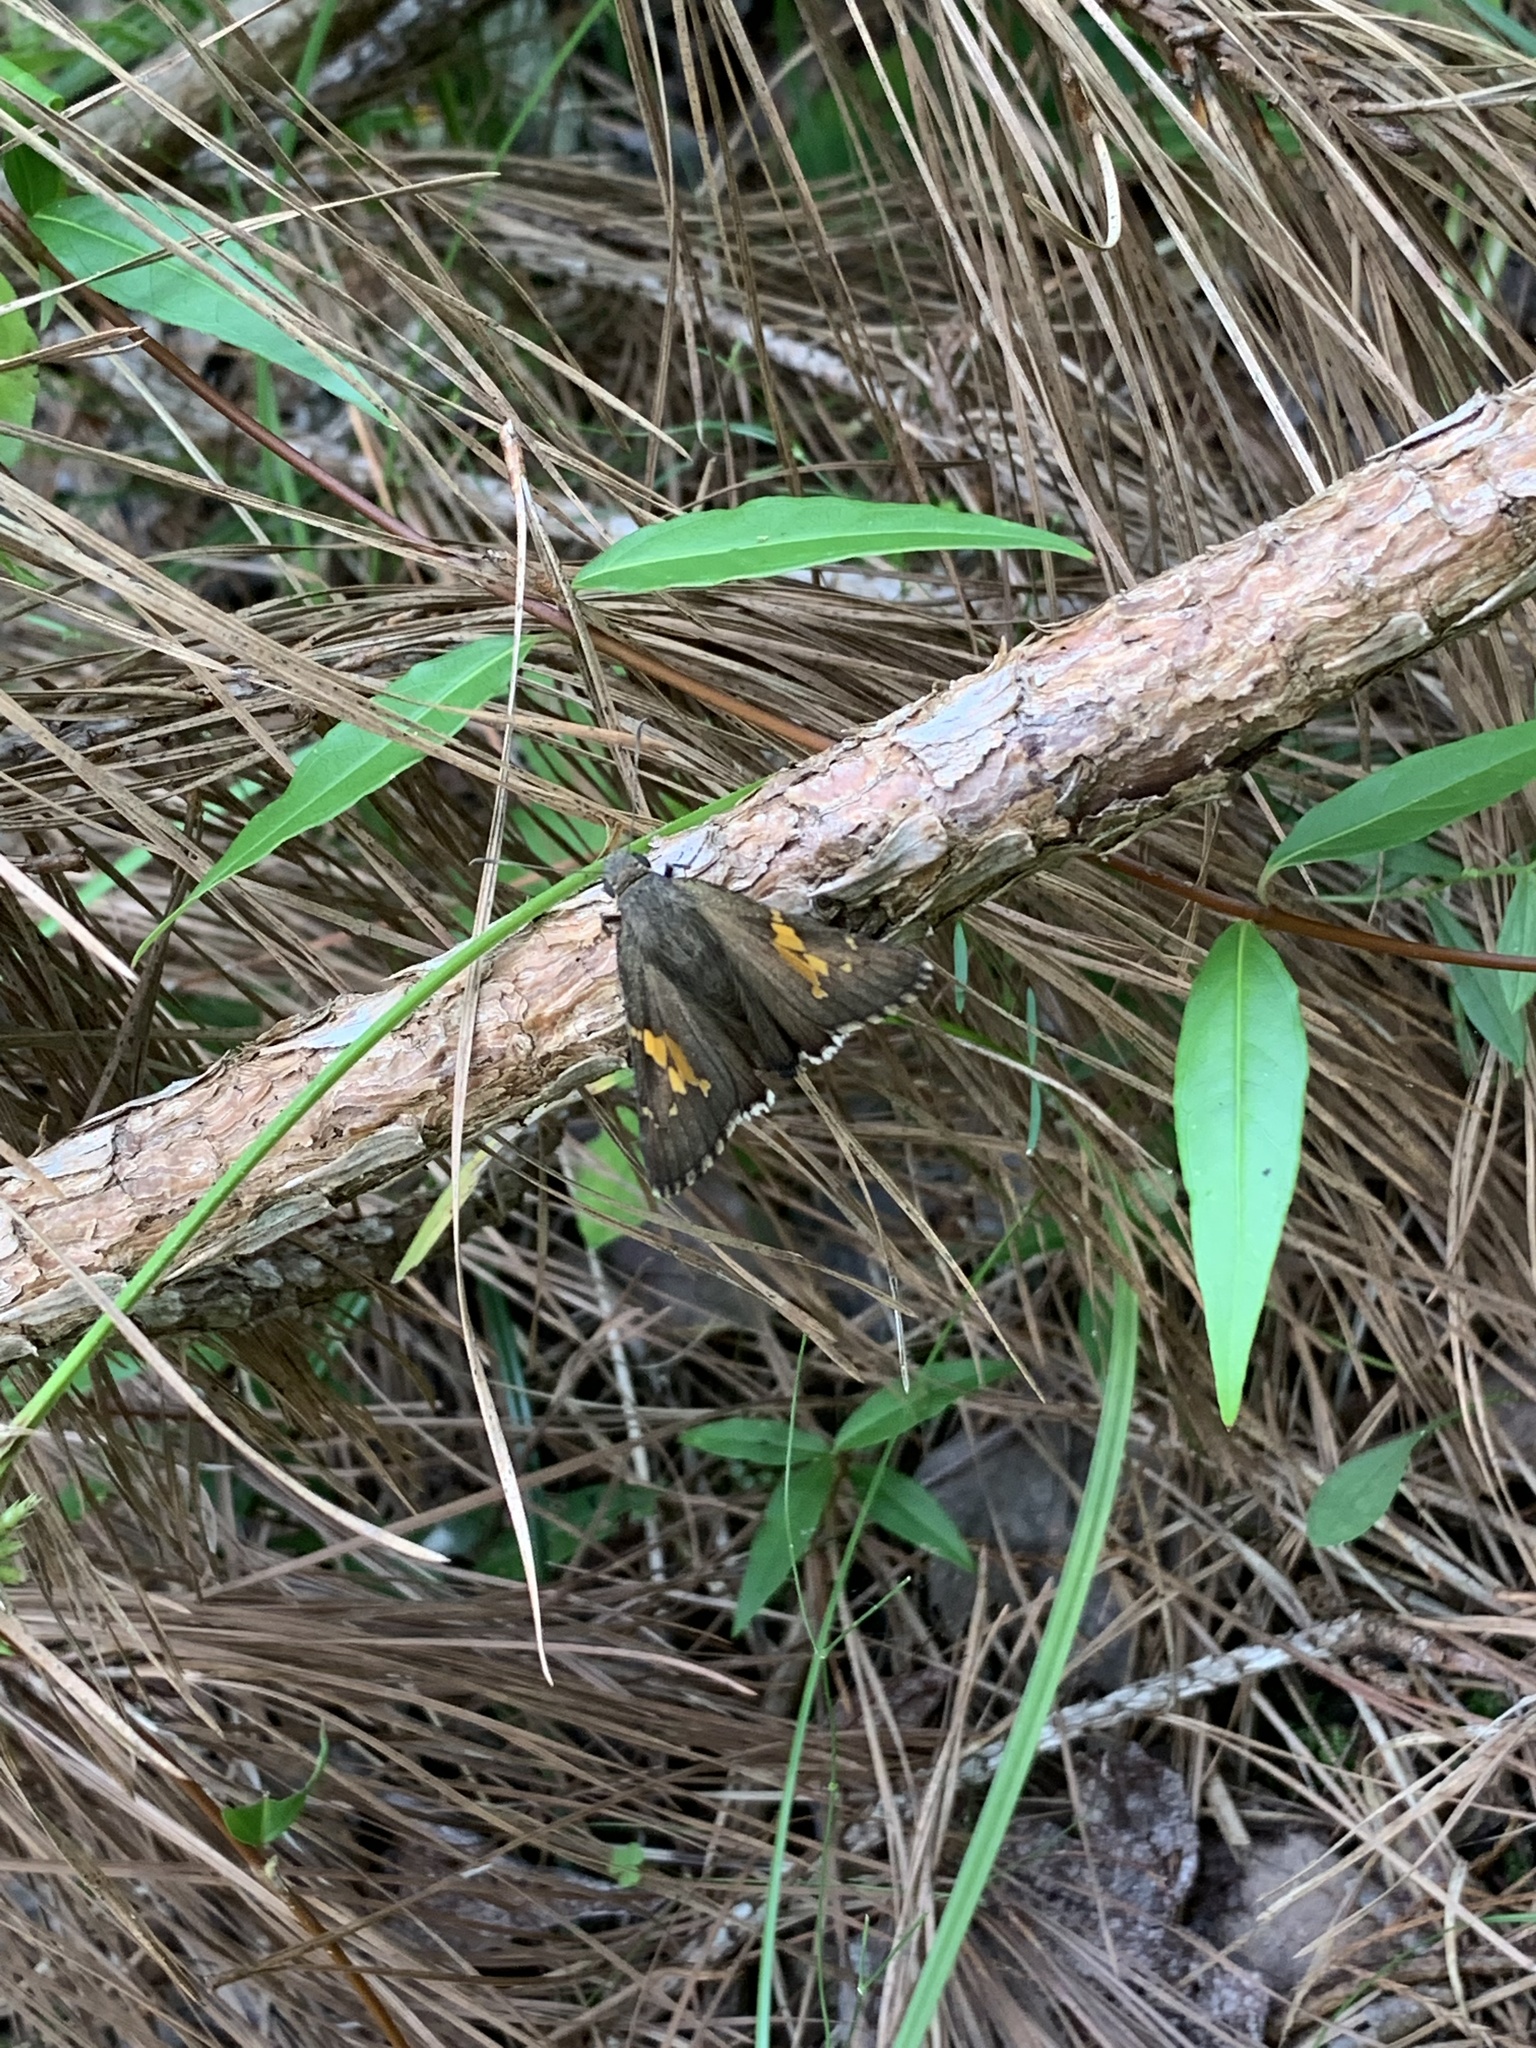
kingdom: Animalia
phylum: Arthropoda
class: Insecta
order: Lepidoptera
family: Hesperiidae
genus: Thorybes
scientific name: Thorybes lyciades
